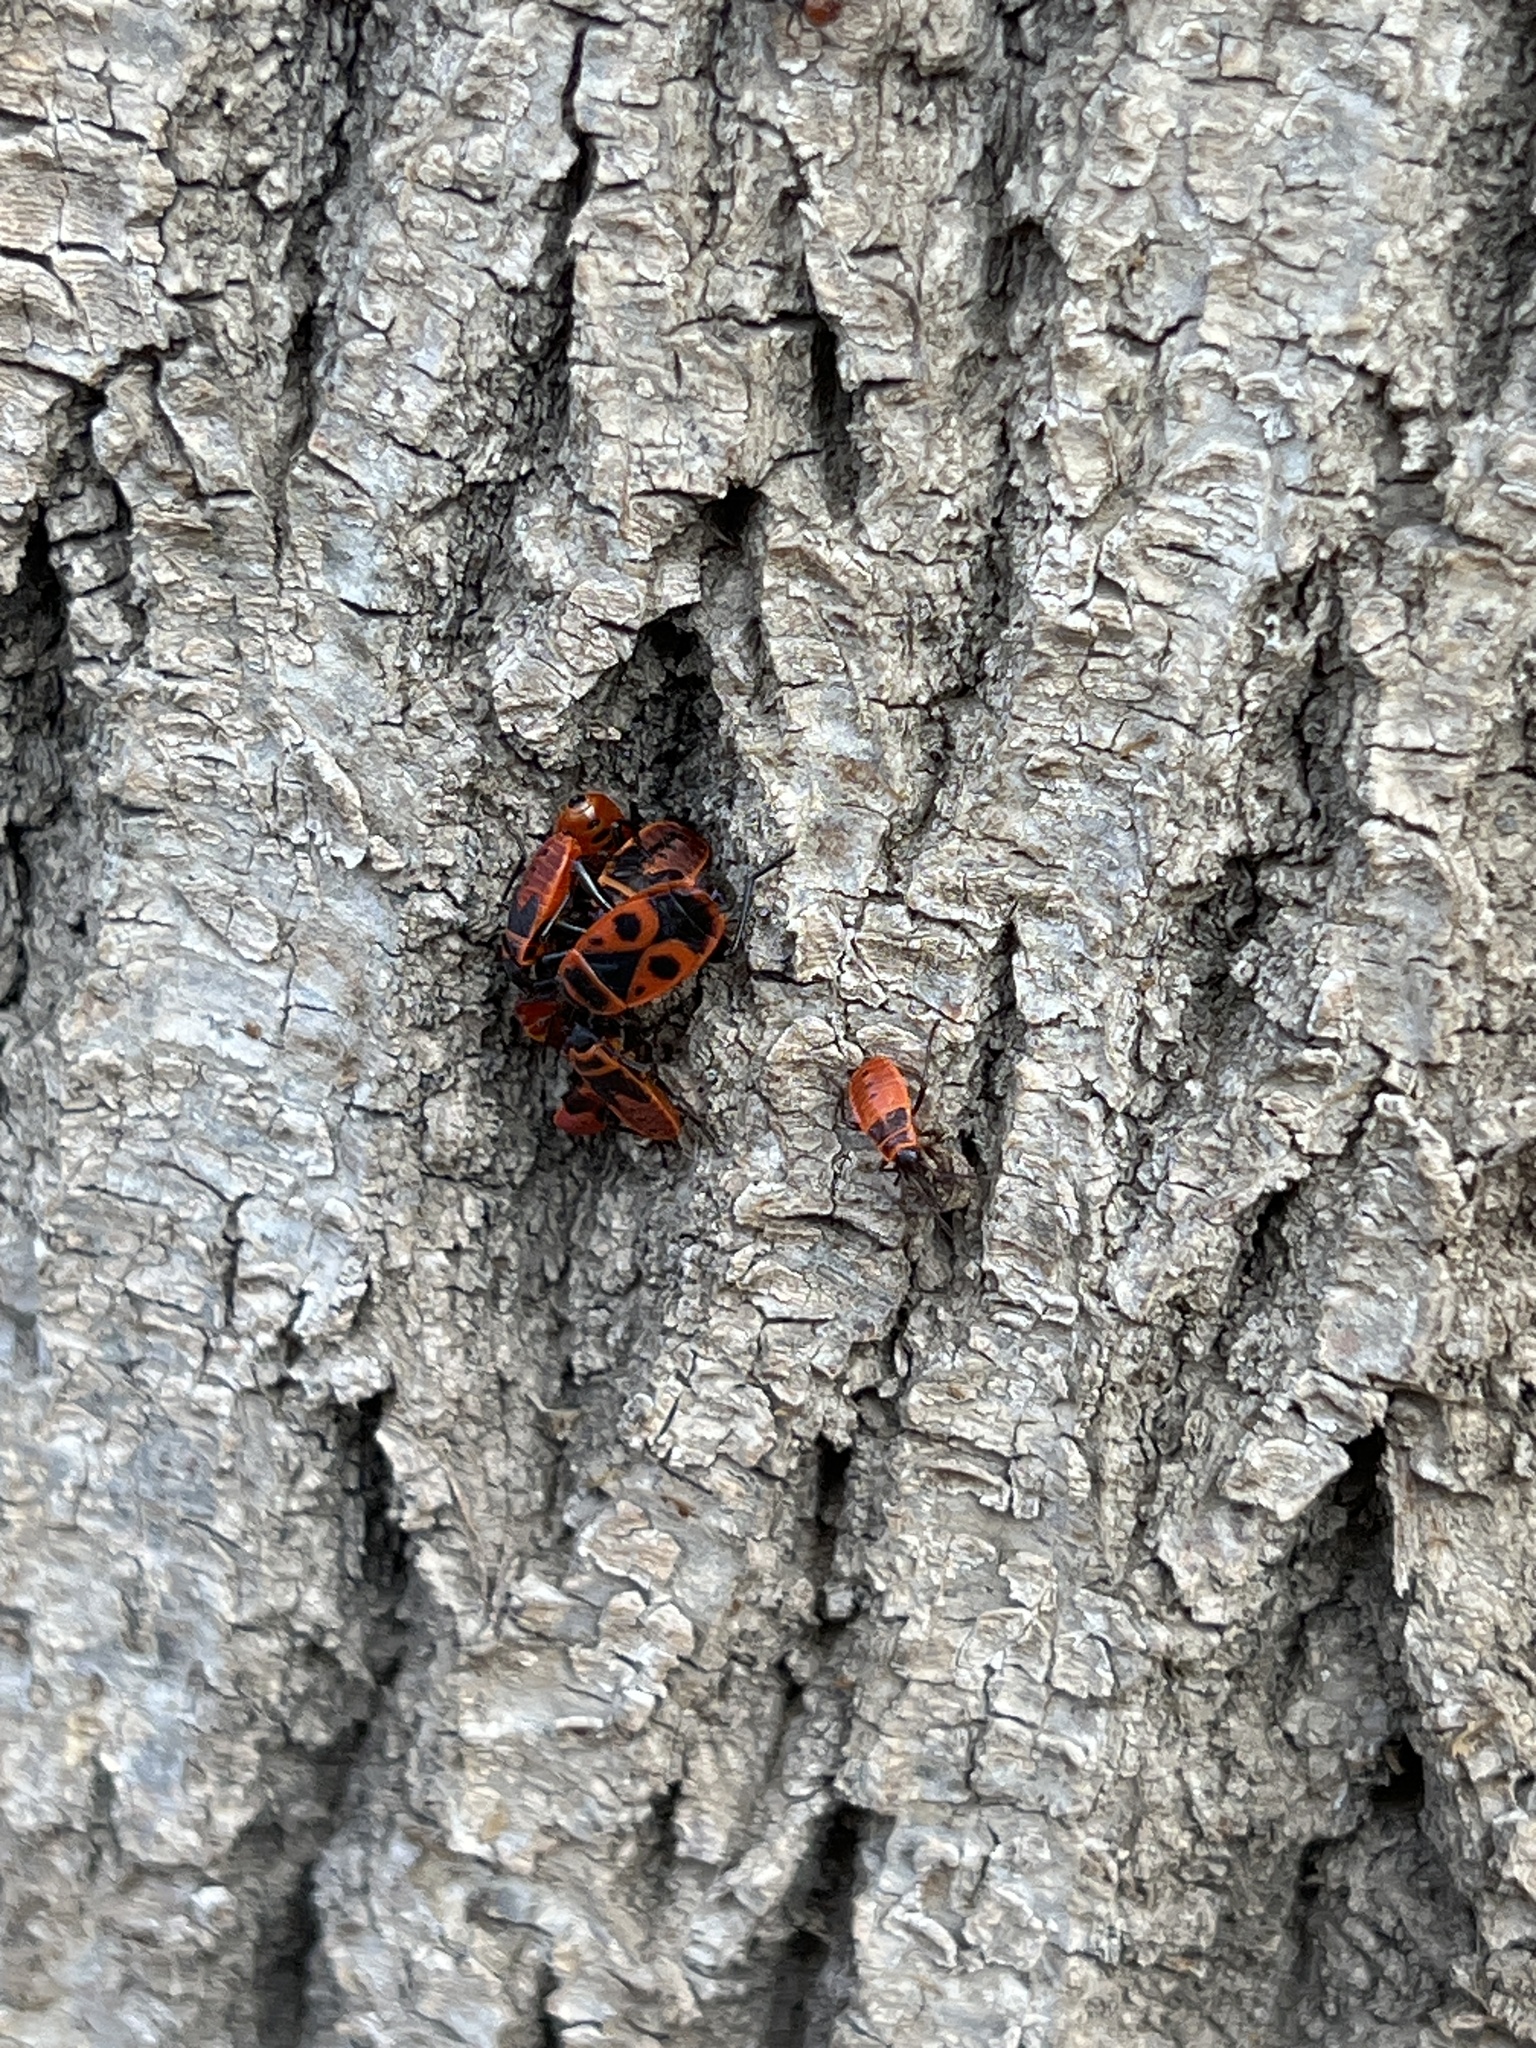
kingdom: Animalia
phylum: Arthropoda
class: Insecta
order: Hemiptera
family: Pyrrhocoridae
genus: Pyrrhocoris
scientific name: Pyrrhocoris apterus
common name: Firebug
